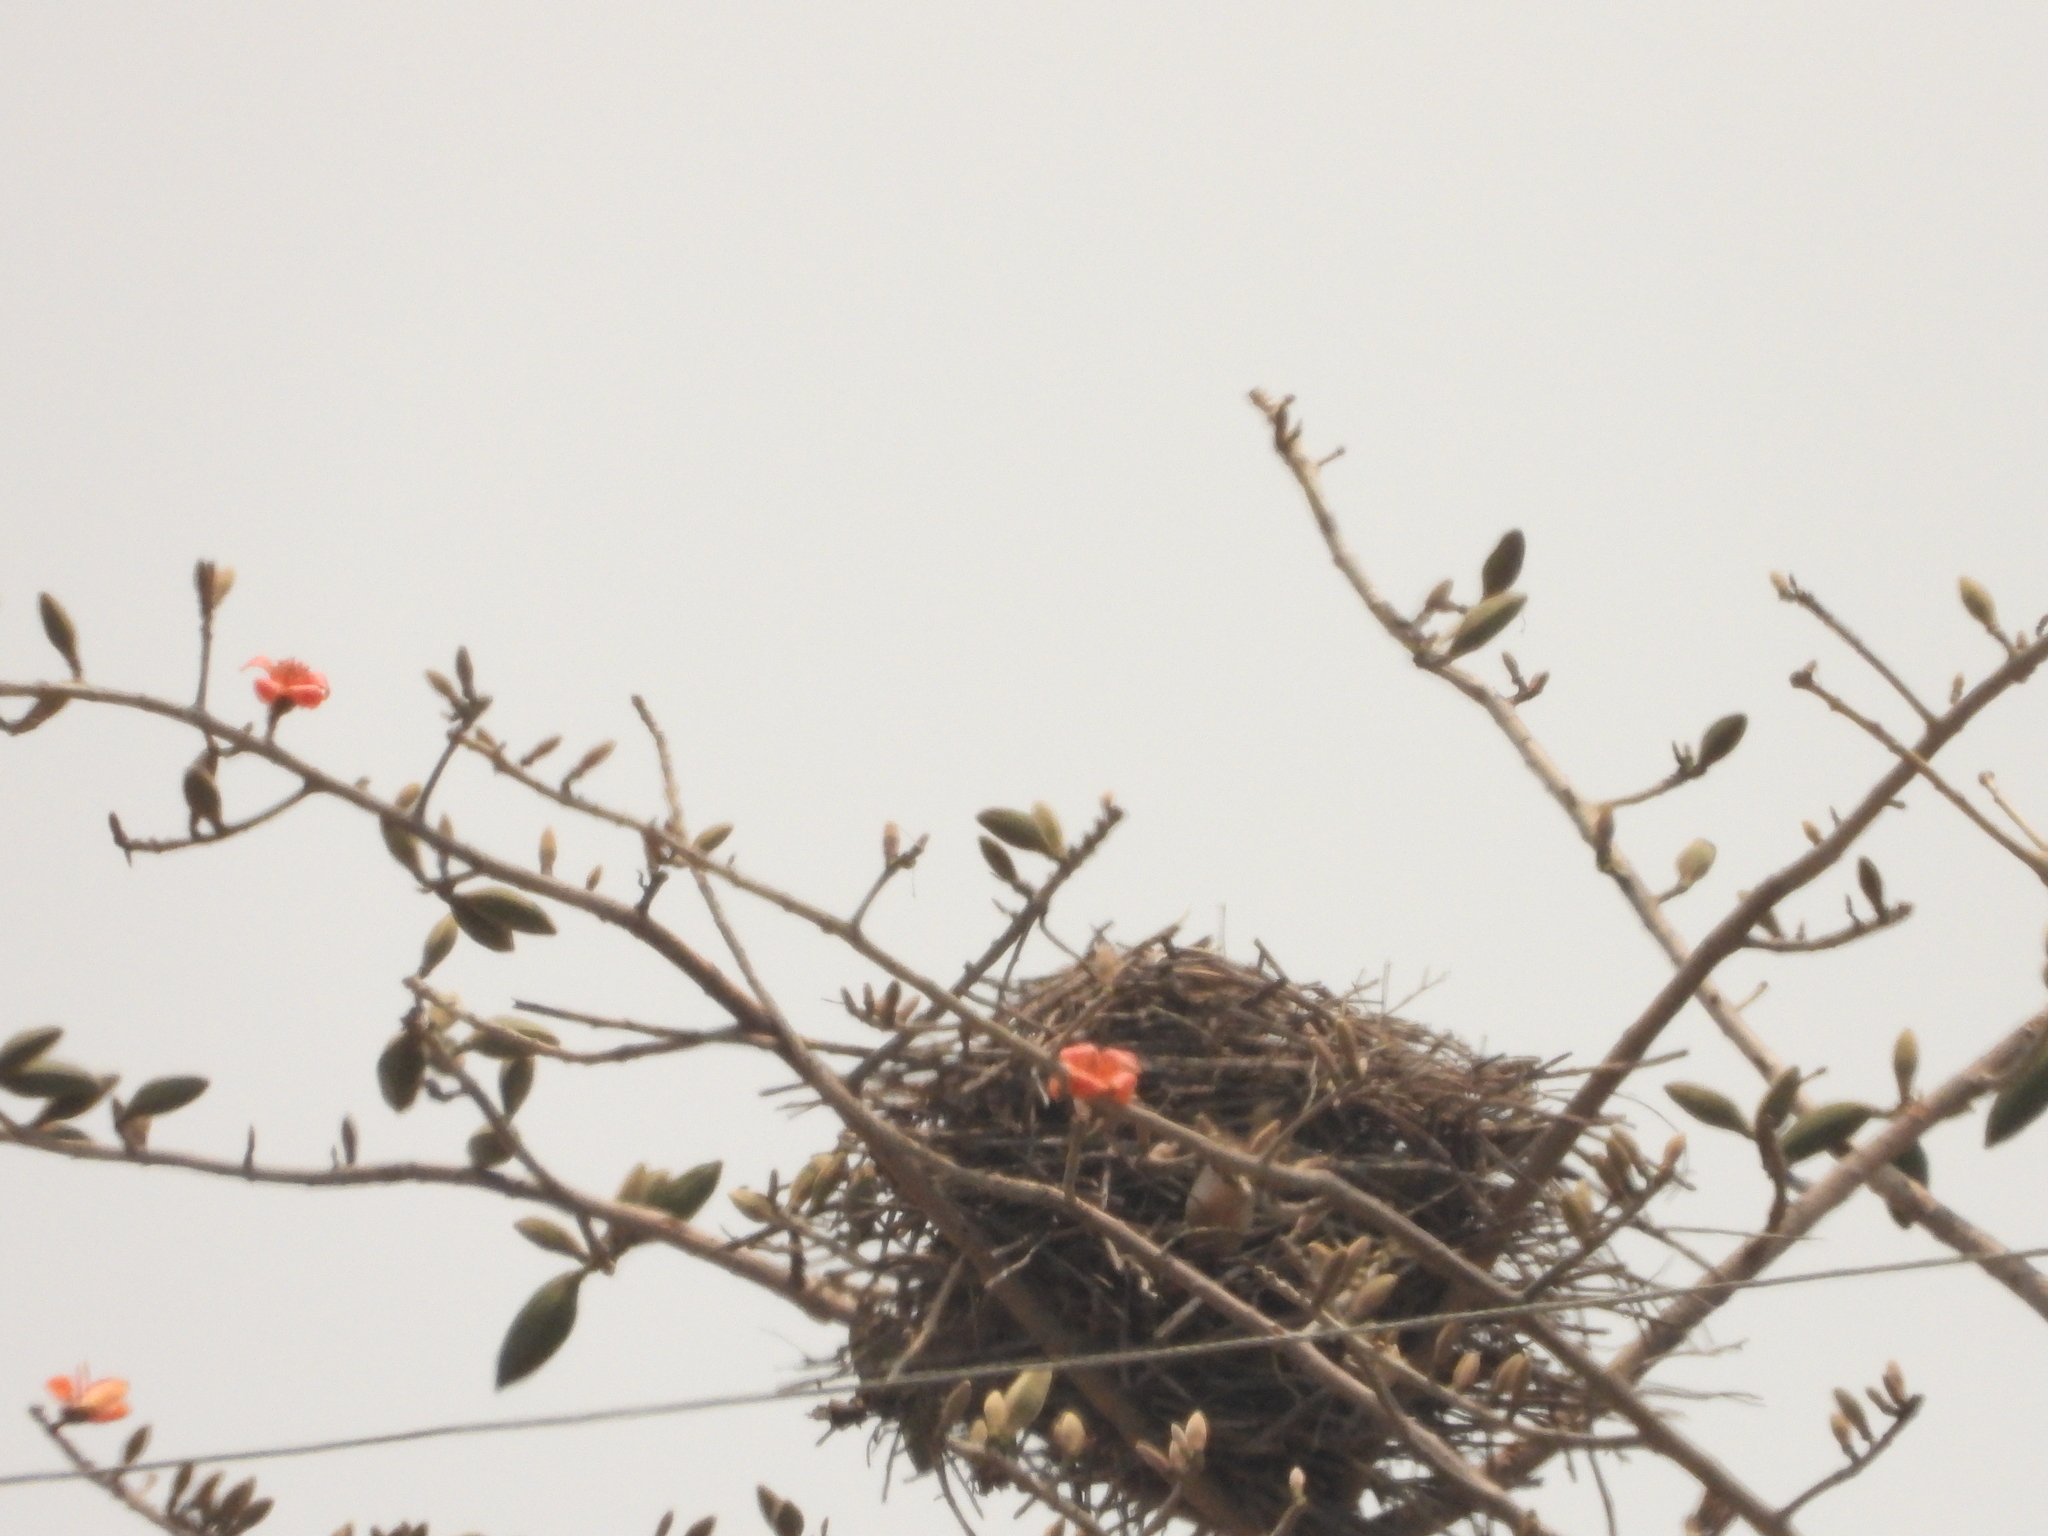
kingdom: Animalia
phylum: Chordata
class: Aves
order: Passeriformes
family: Corvidae
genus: Pica
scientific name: Pica serica
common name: Oriental magpie
